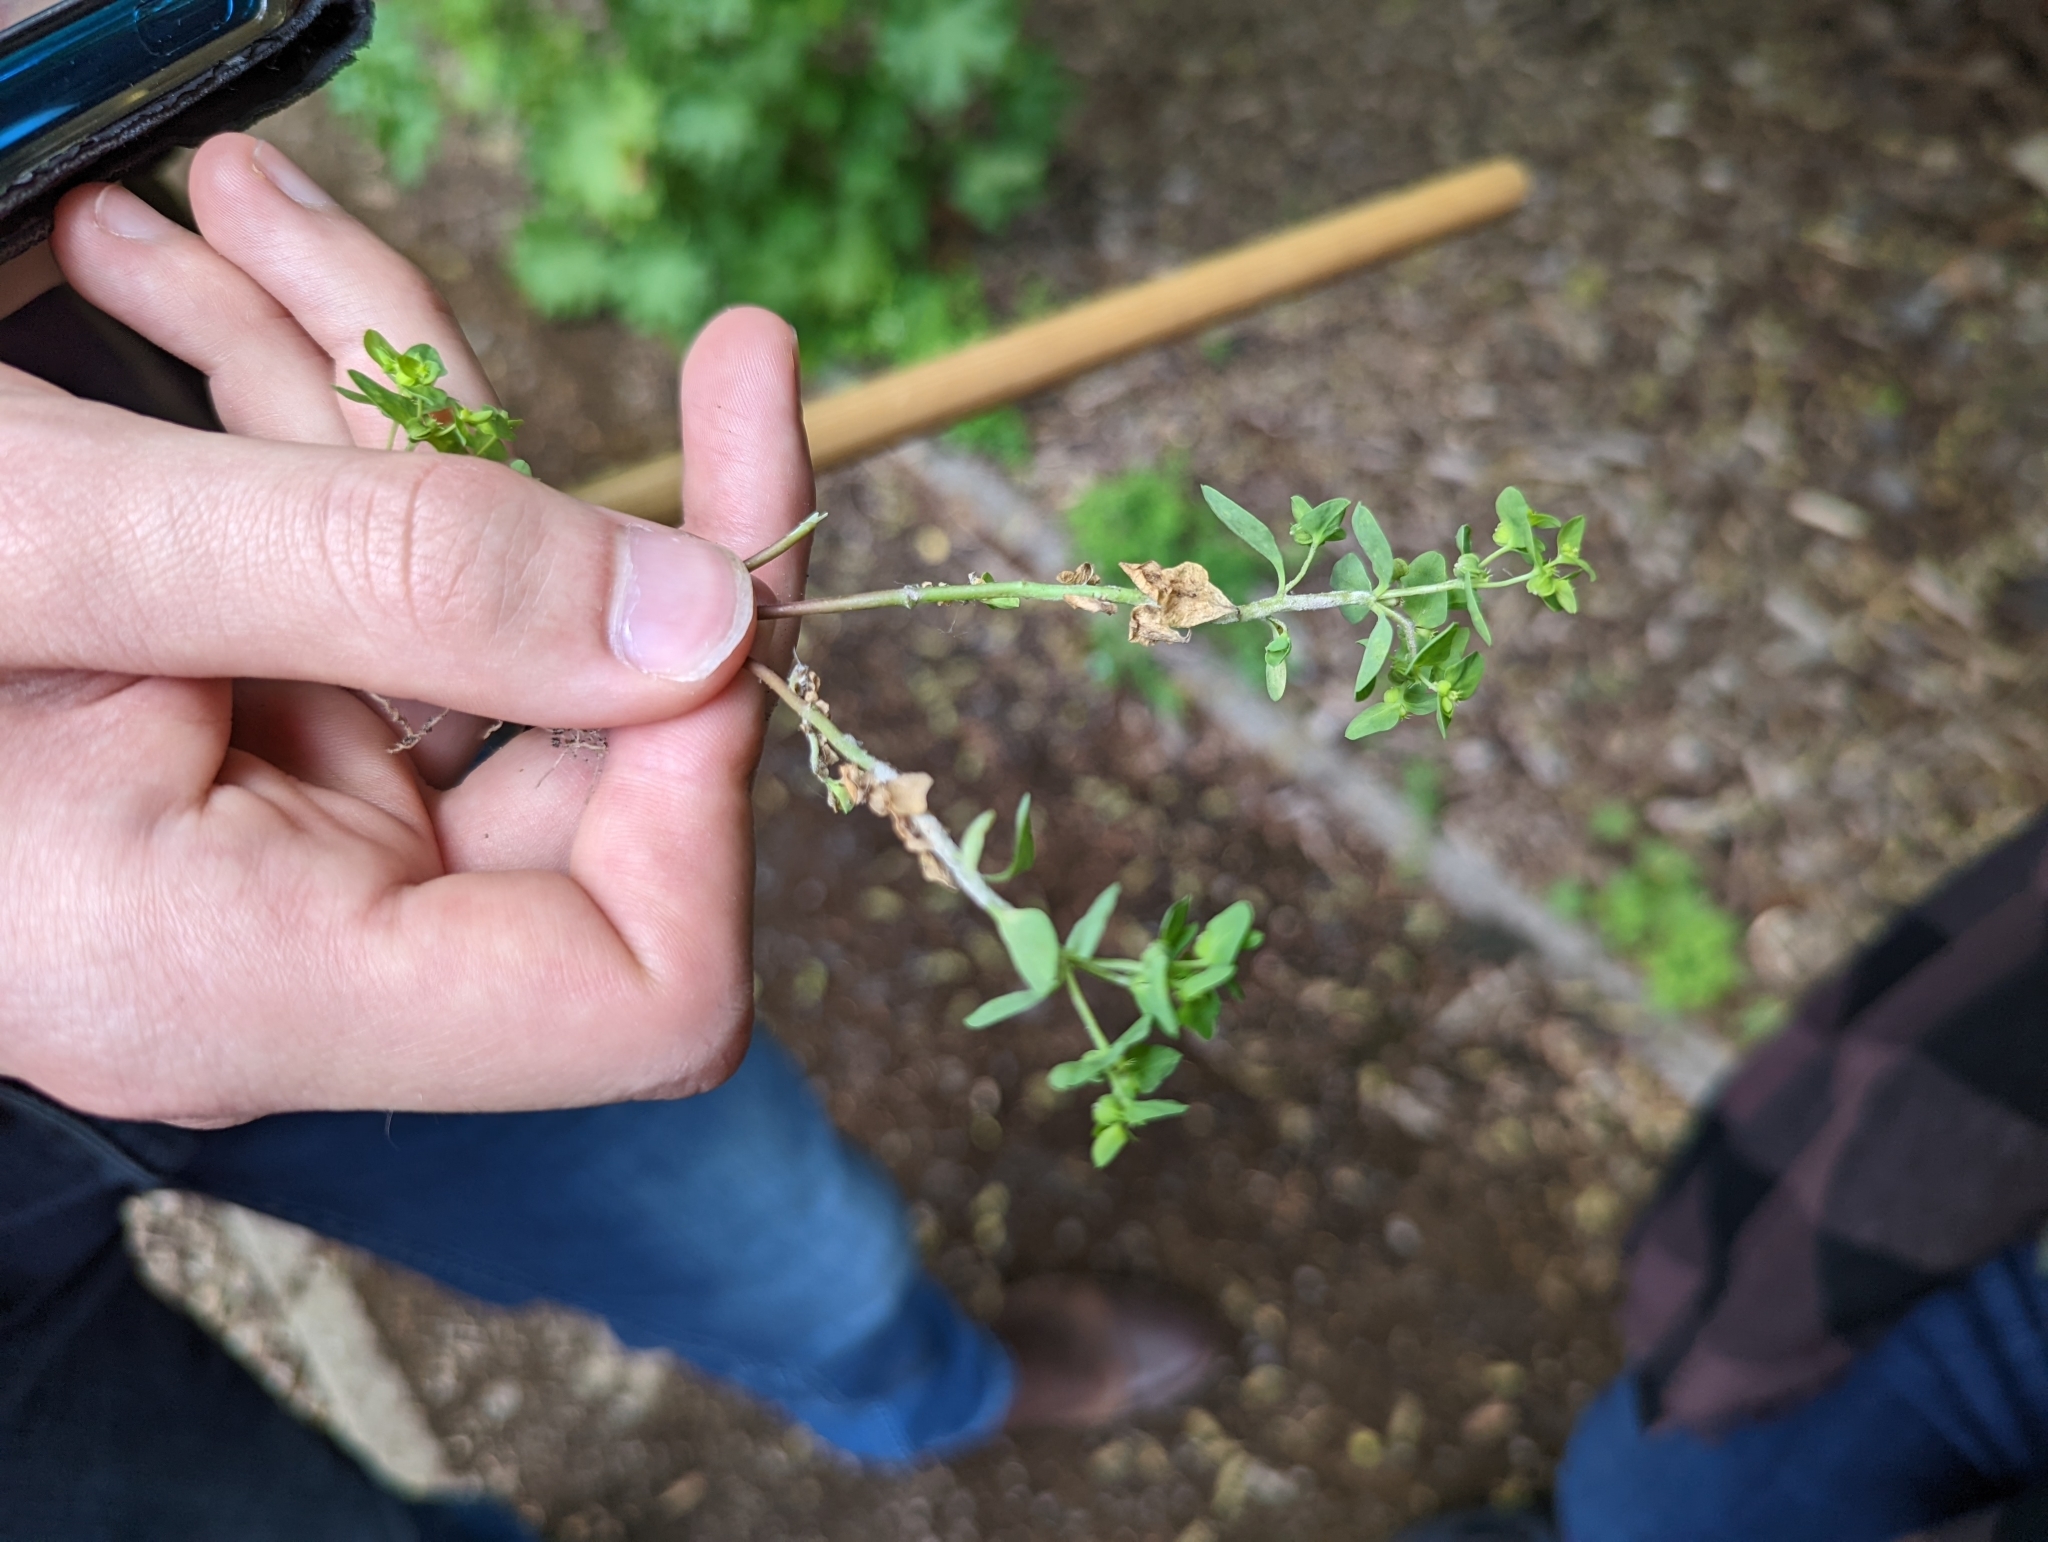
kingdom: Plantae
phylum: Tracheophyta
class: Magnoliopsida
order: Malpighiales
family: Euphorbiaceae
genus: Euphorbia
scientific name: Euphorbia peplus
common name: Petty spurge
